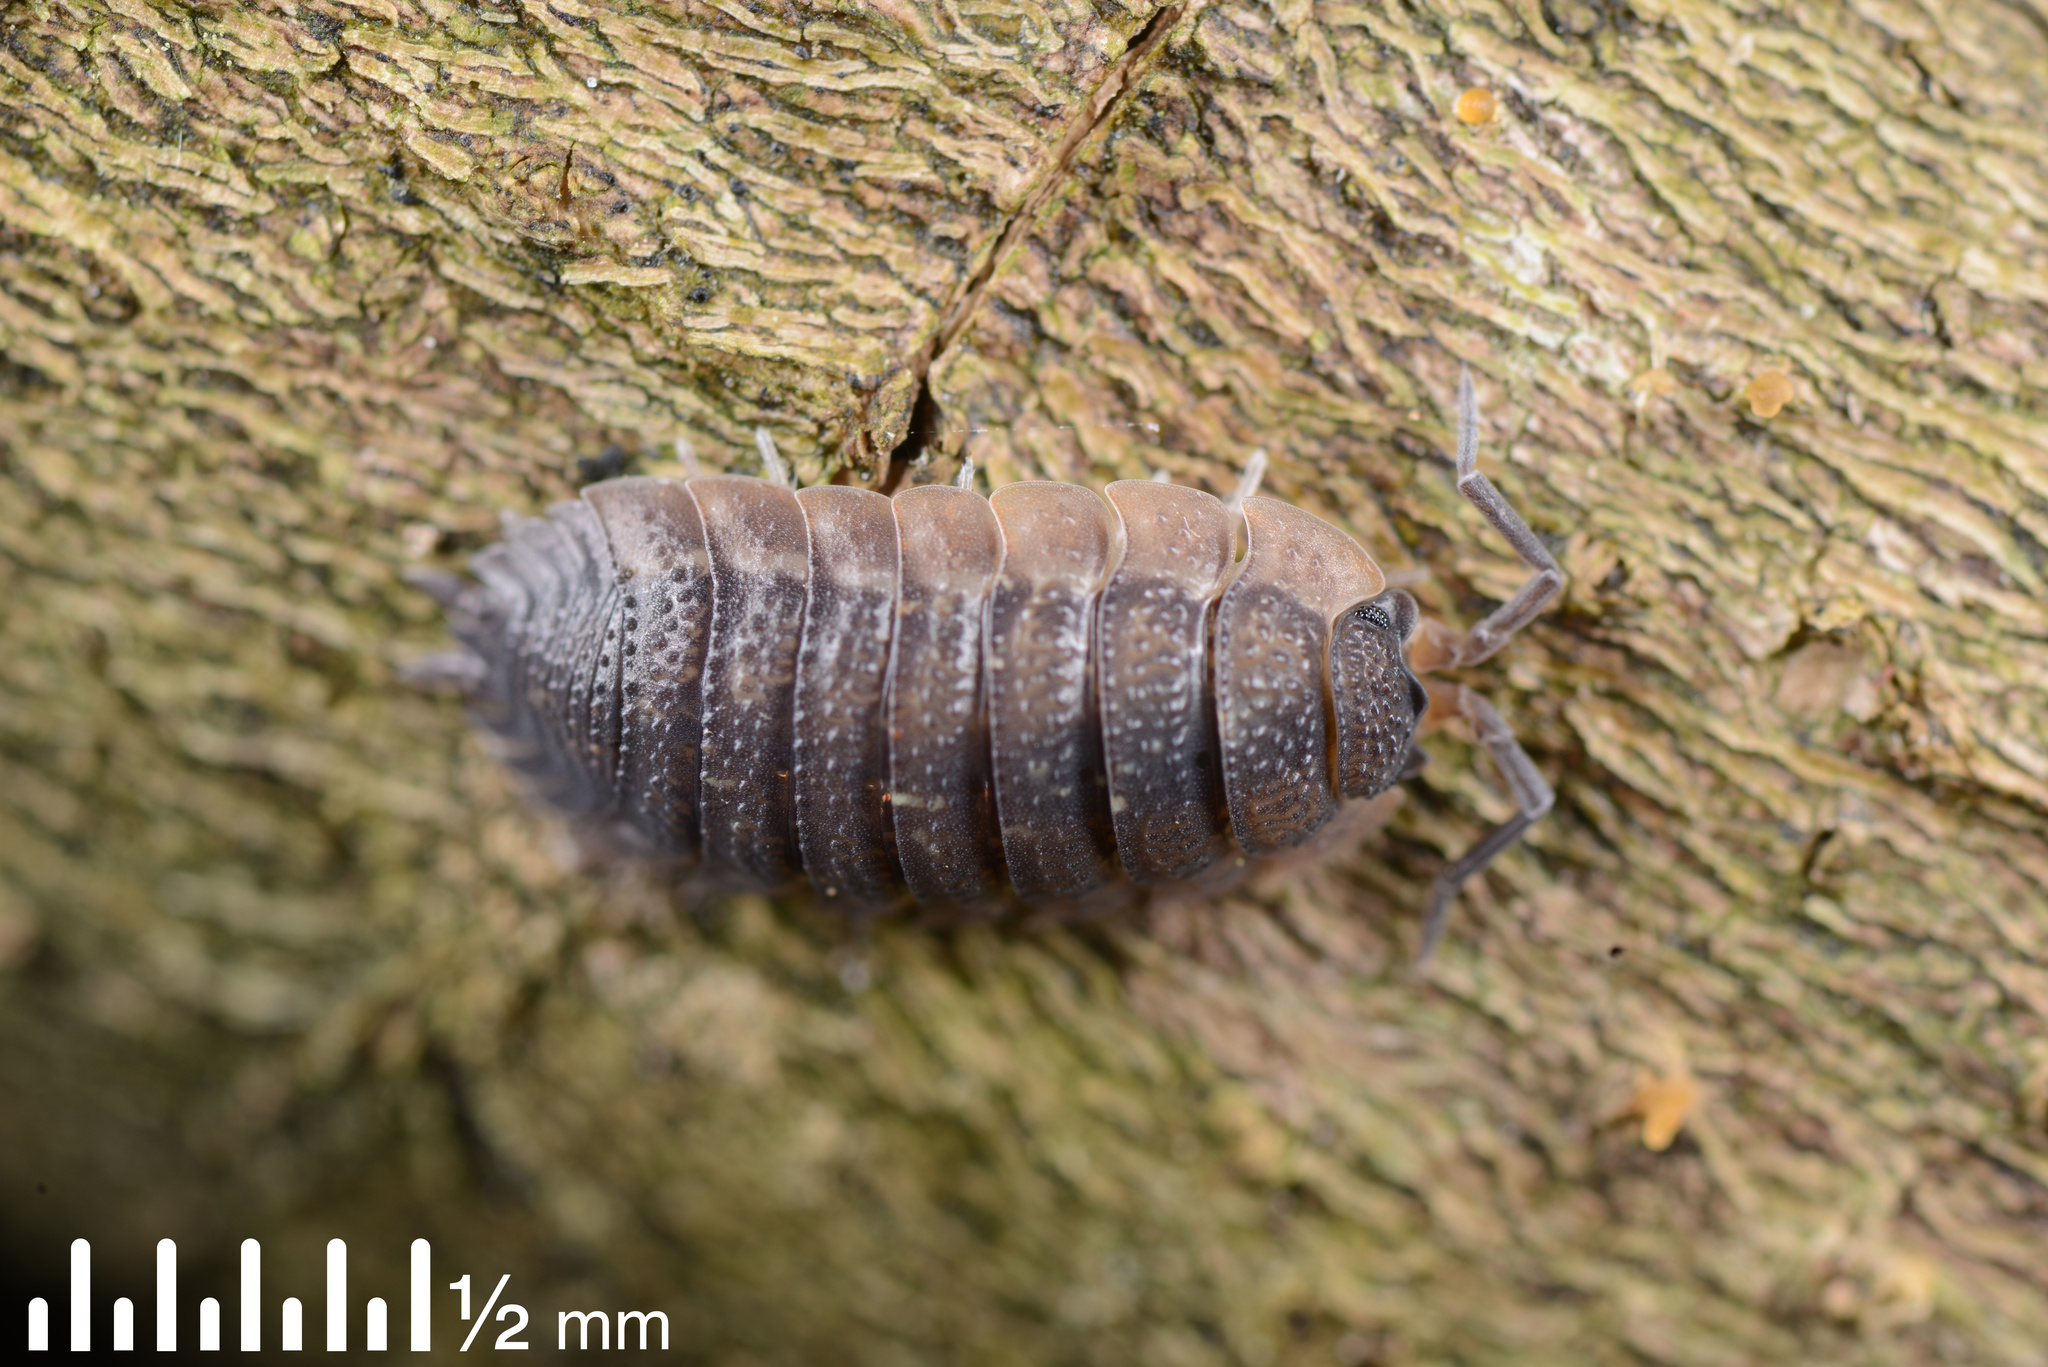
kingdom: Animalia
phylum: Arthropoda
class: Malacostraca
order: Isopoda
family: Porcellionidae
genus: Porcellio
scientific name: Porcellio scaber
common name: Common rough woodlouse
